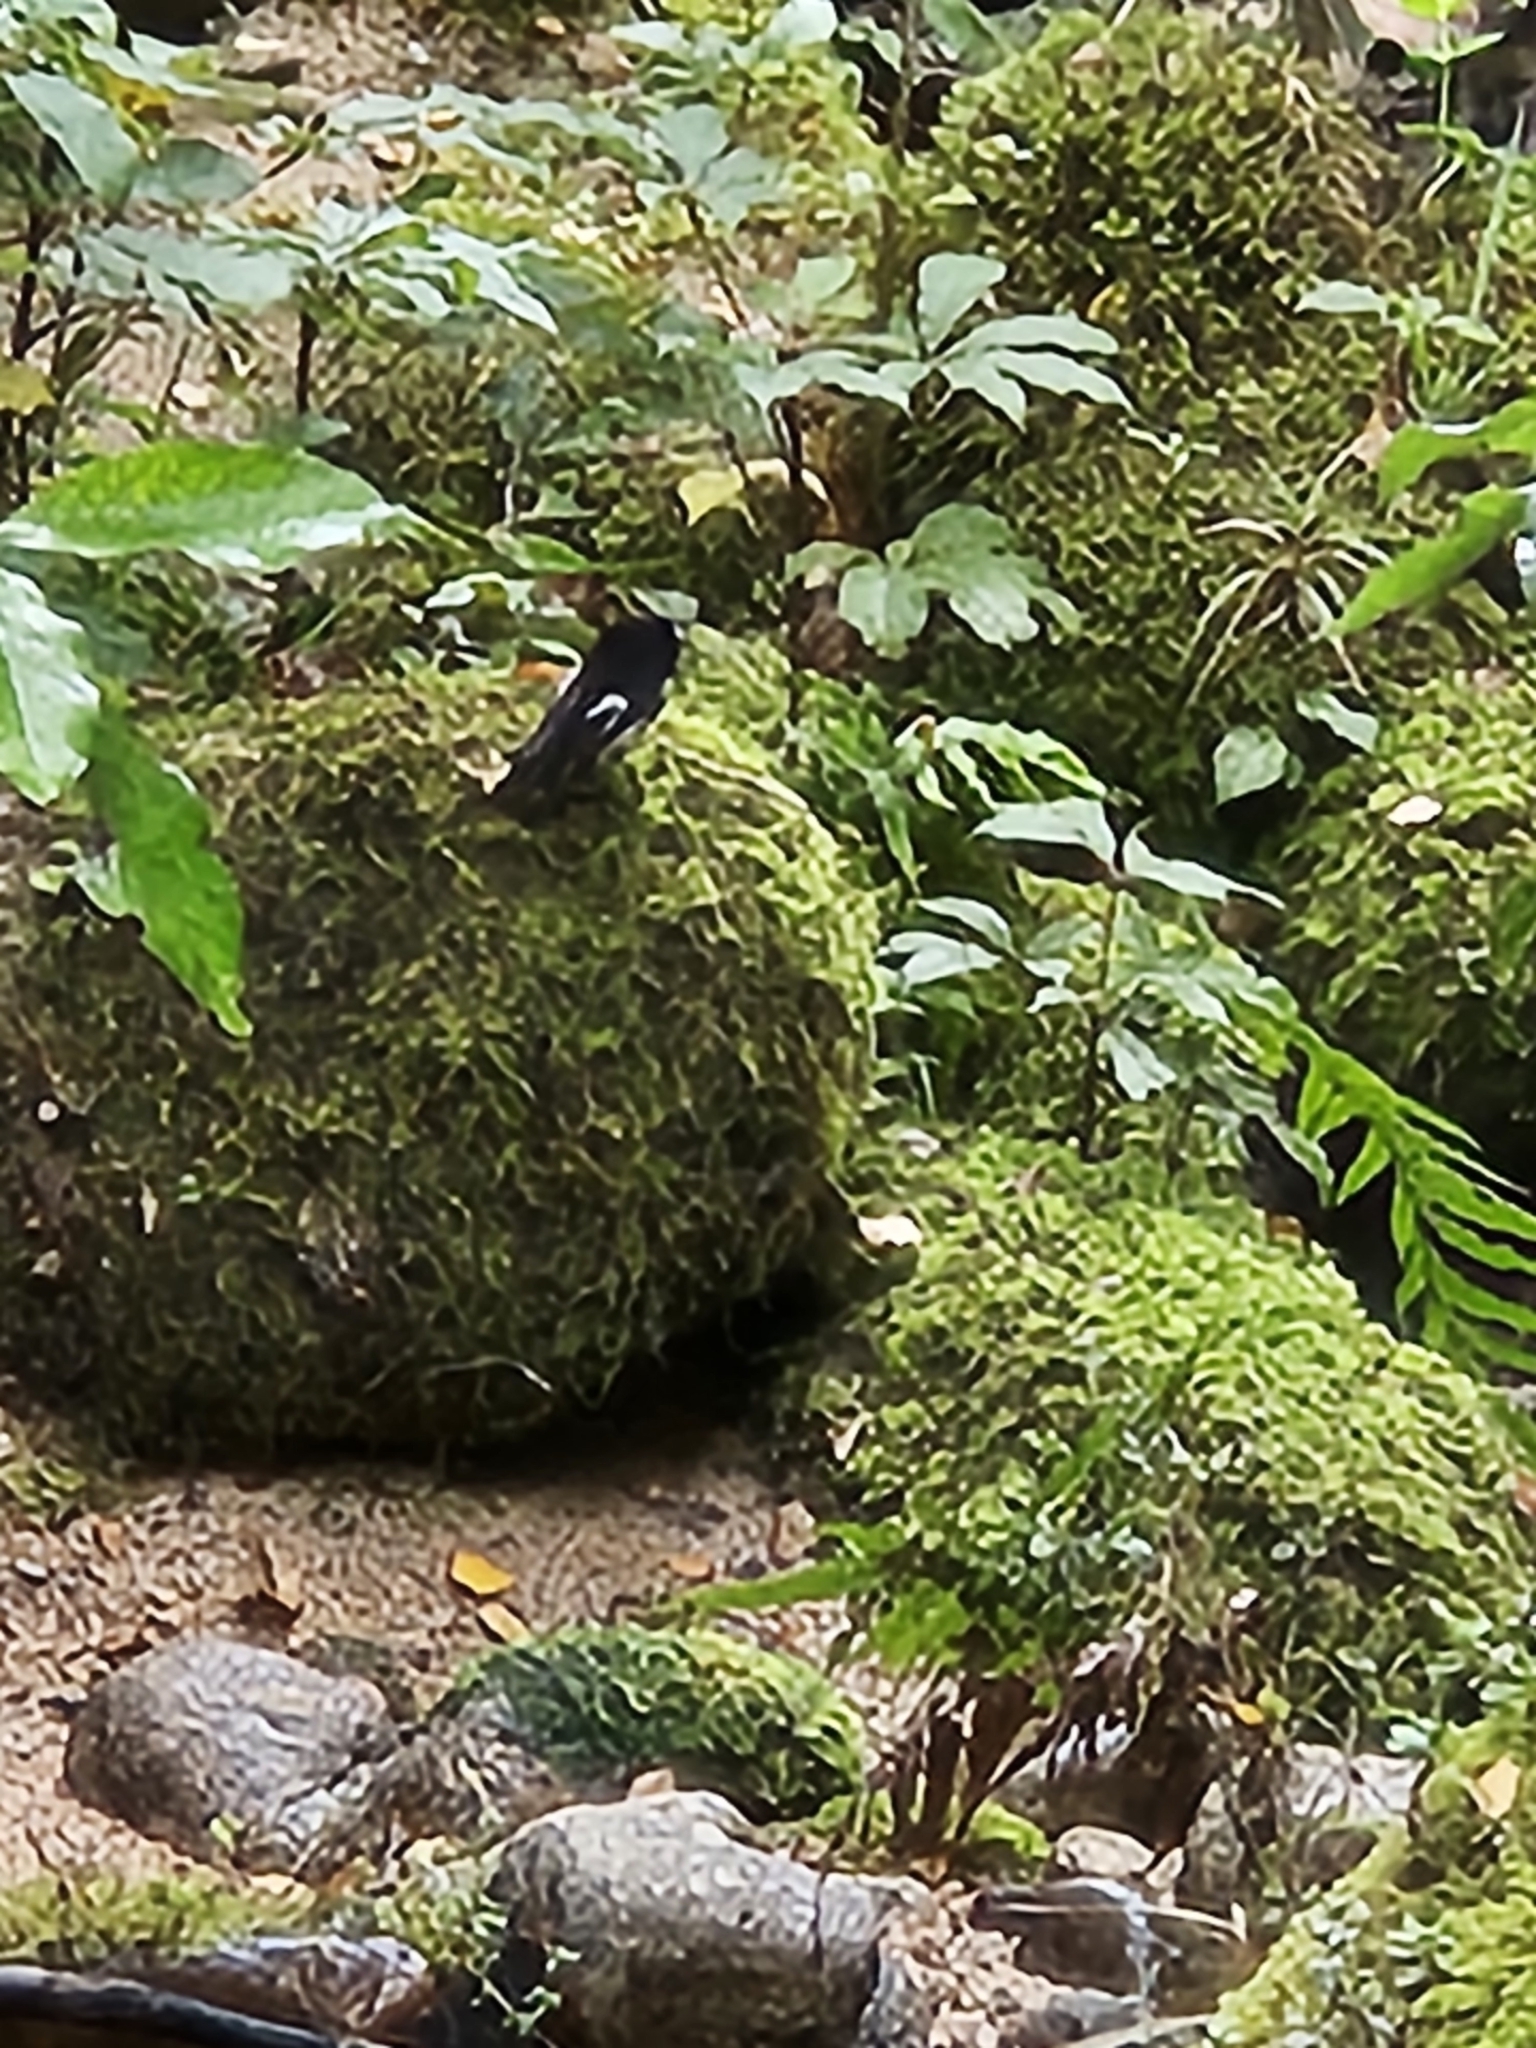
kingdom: Animalia
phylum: Chordata
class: Aves
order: Passeriformes
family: Petroicidae
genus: Petroica
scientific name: Petroica macrocephala
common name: Tomtit
